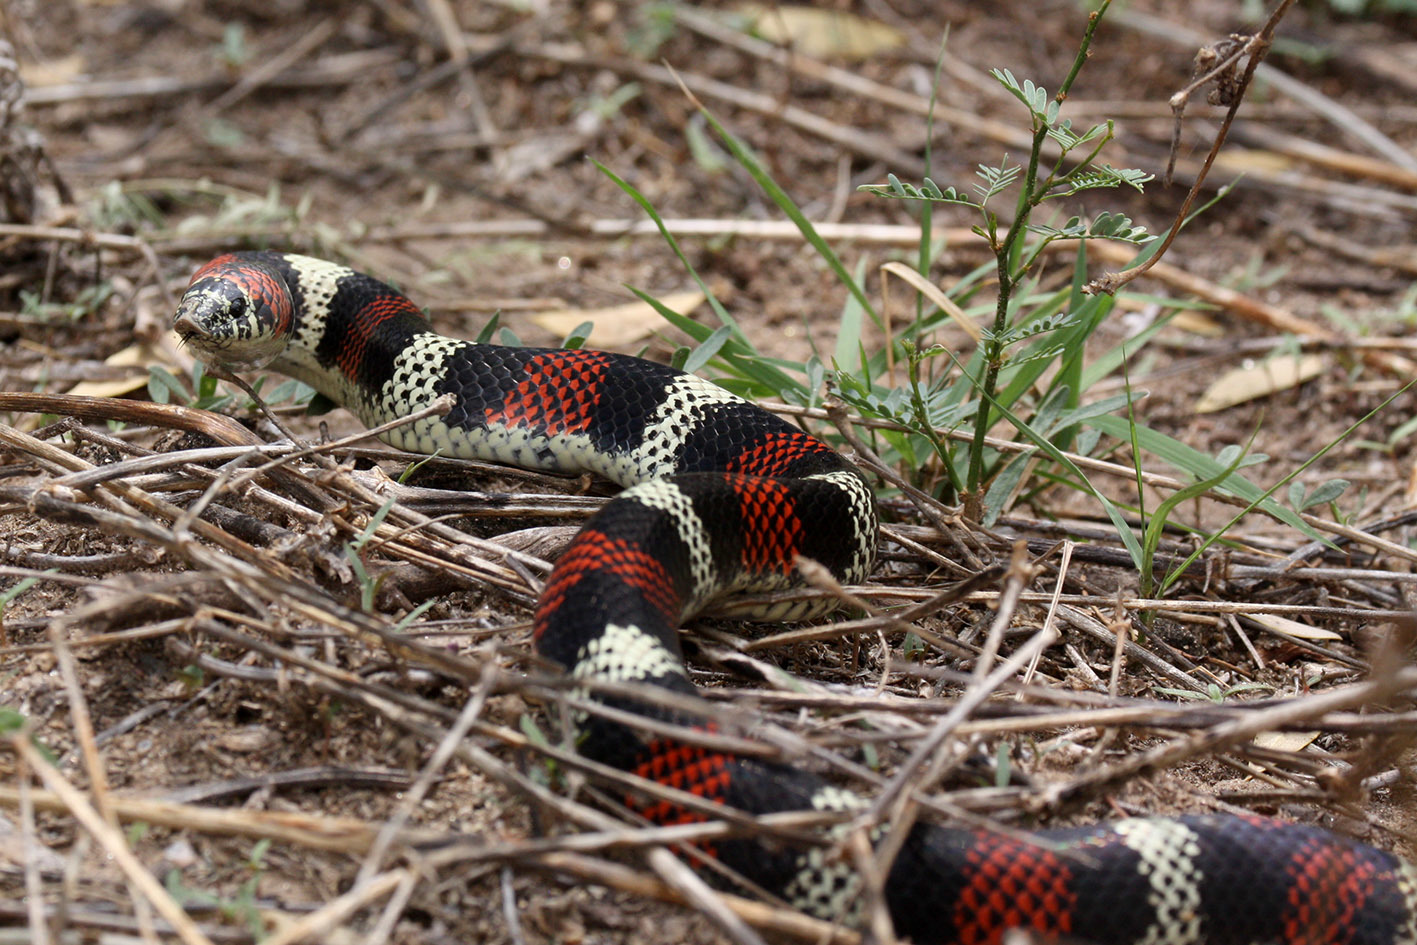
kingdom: Animalia
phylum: Chordata
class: Squamata
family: Colubridae
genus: Xenodon
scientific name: Xenodon semicinctus
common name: Ringed hognose snake
